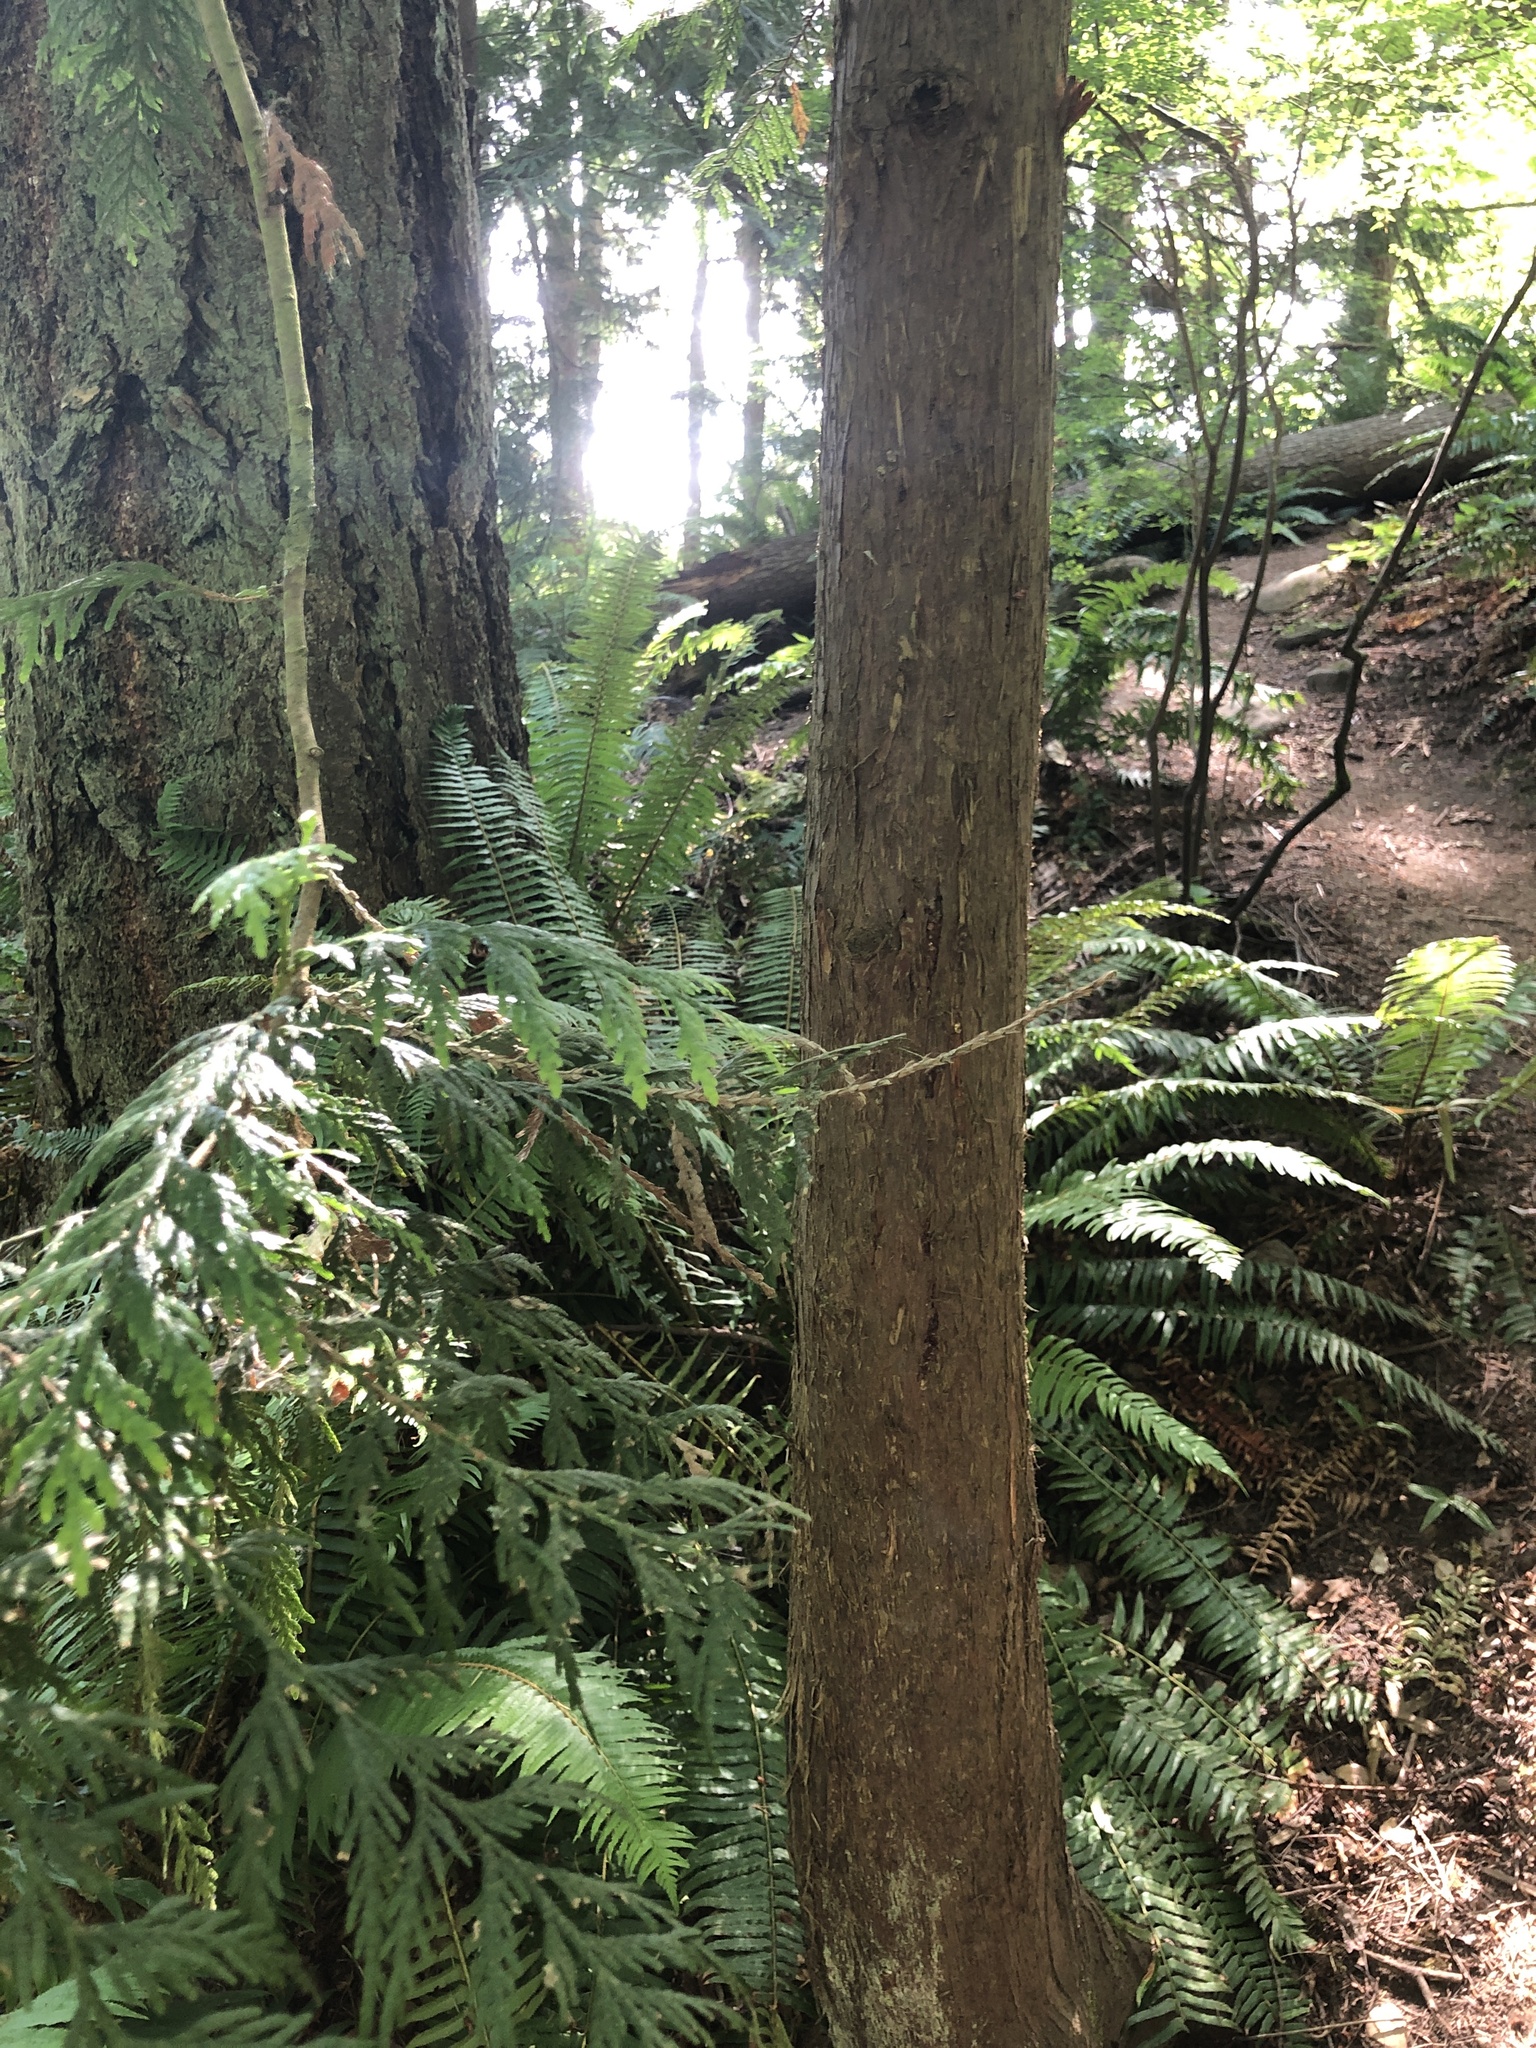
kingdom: Plantae
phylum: Tracheophyta
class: Pinopsida
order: Pinales
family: Cupressaceae
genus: Thuja
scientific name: Thuja plicata
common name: Western red-cedar
